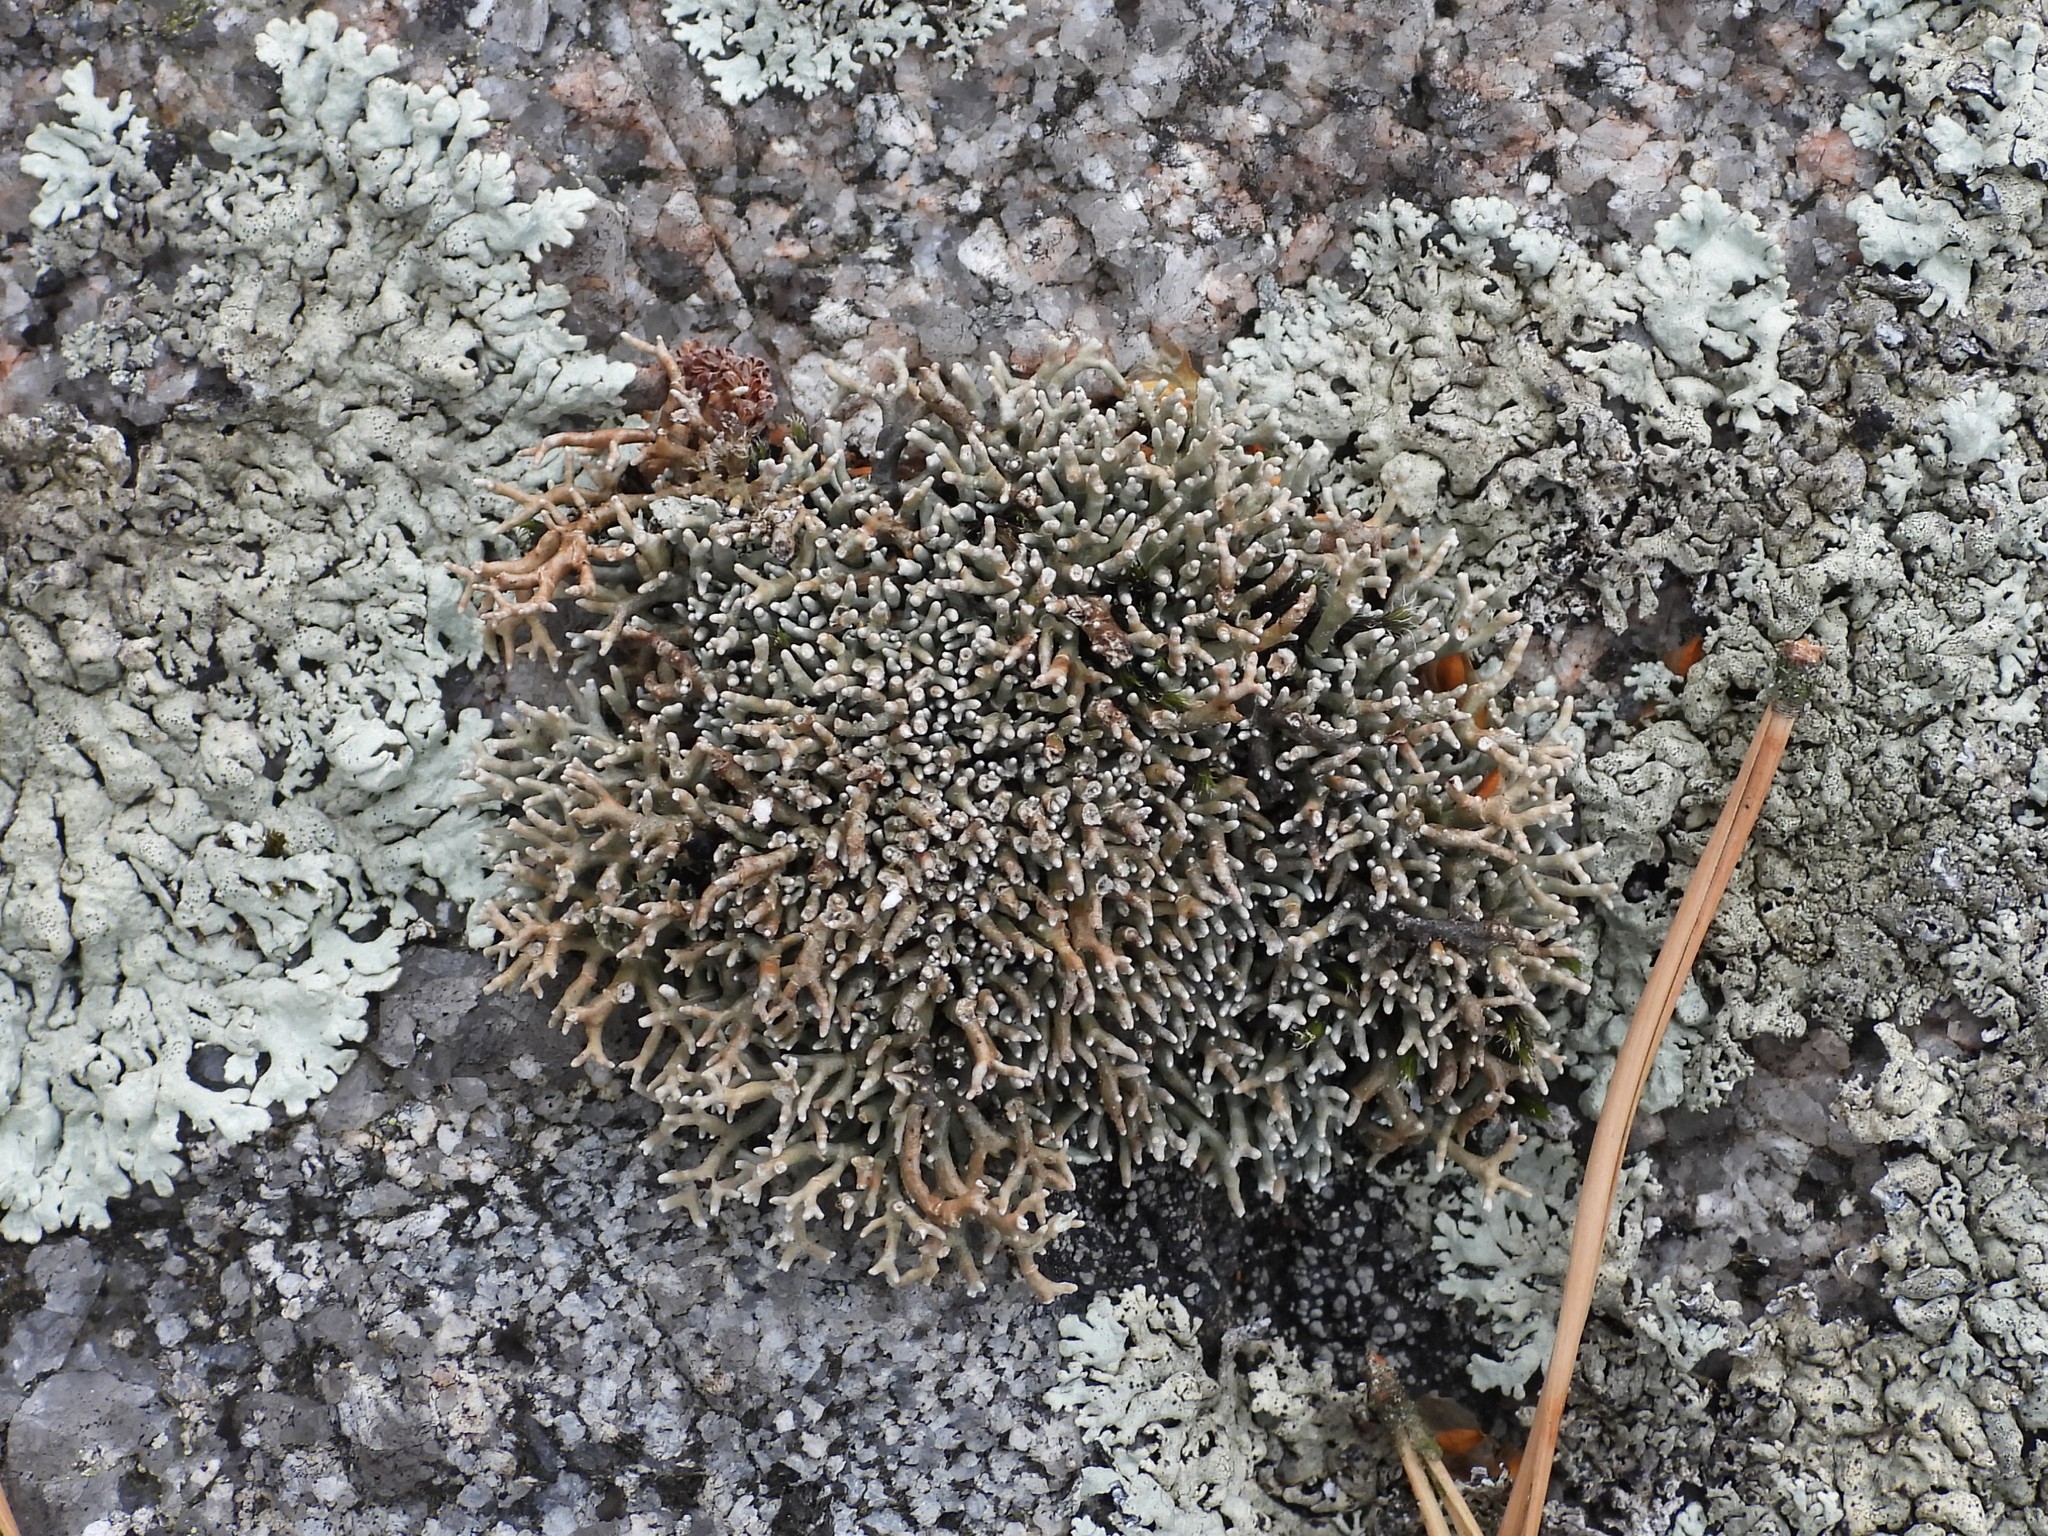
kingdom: Fungi
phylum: Ascomycota
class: Lecanoromycetes
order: Lecanorales
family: Sphaerophoraceae
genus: Sphaerophorus
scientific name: Sphaerophorus fragilis
